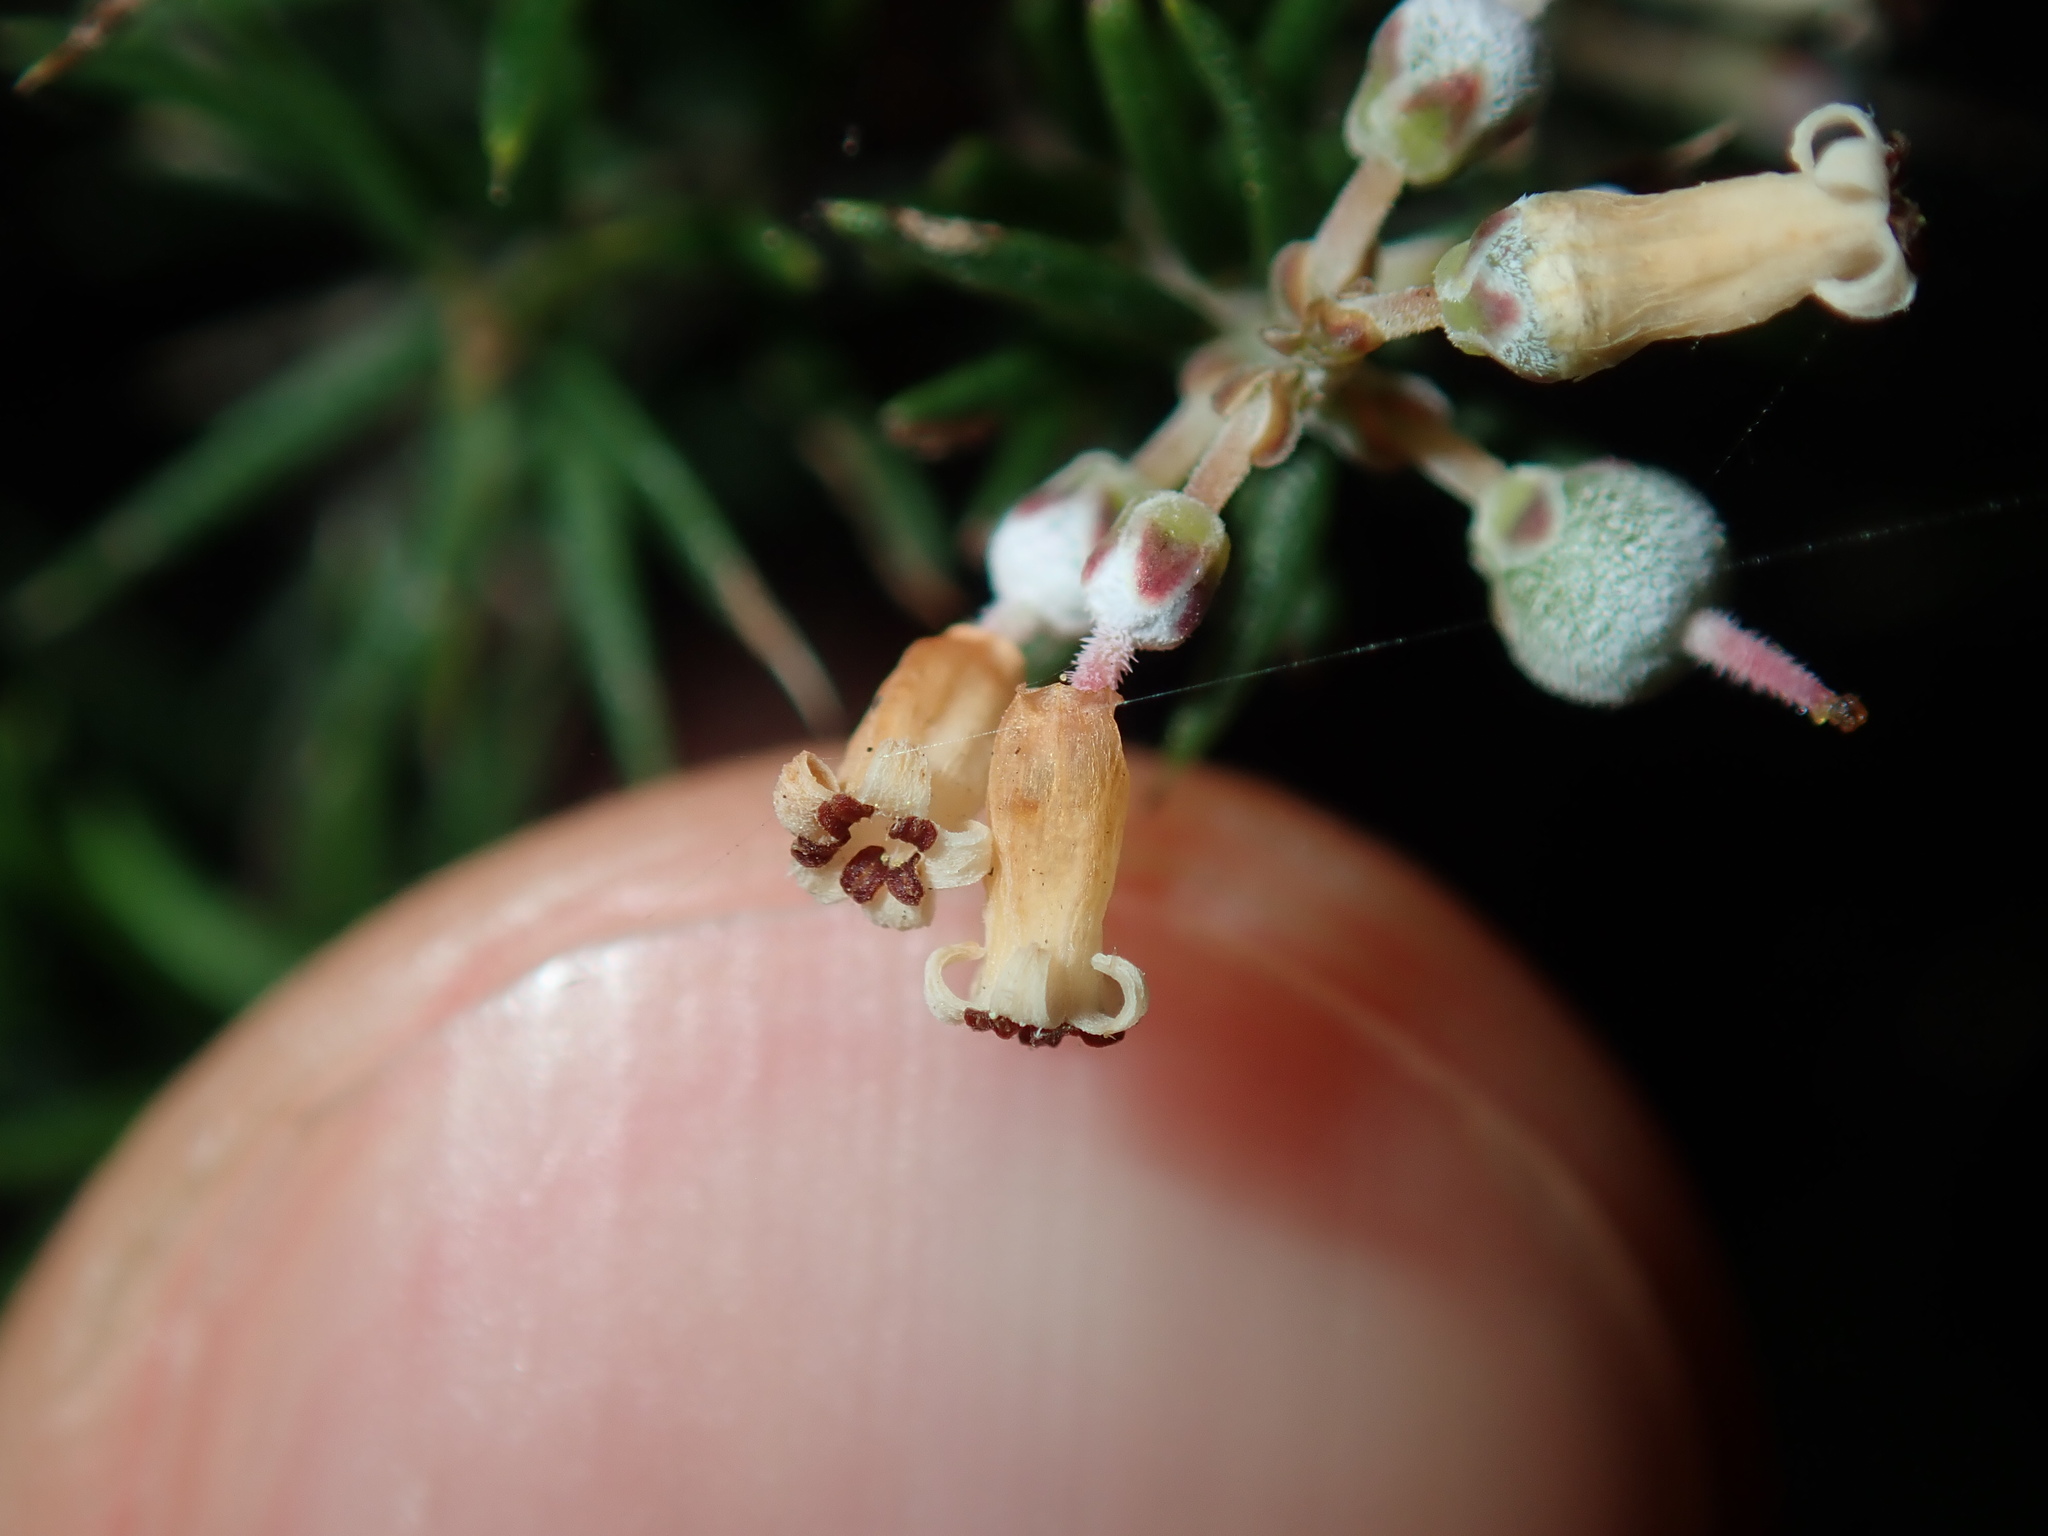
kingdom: Plantae
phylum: Tracheophyta
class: Magnoliopsida
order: Ericales
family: Ericaceae
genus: Lissanthe
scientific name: Lissanthe strigosa
